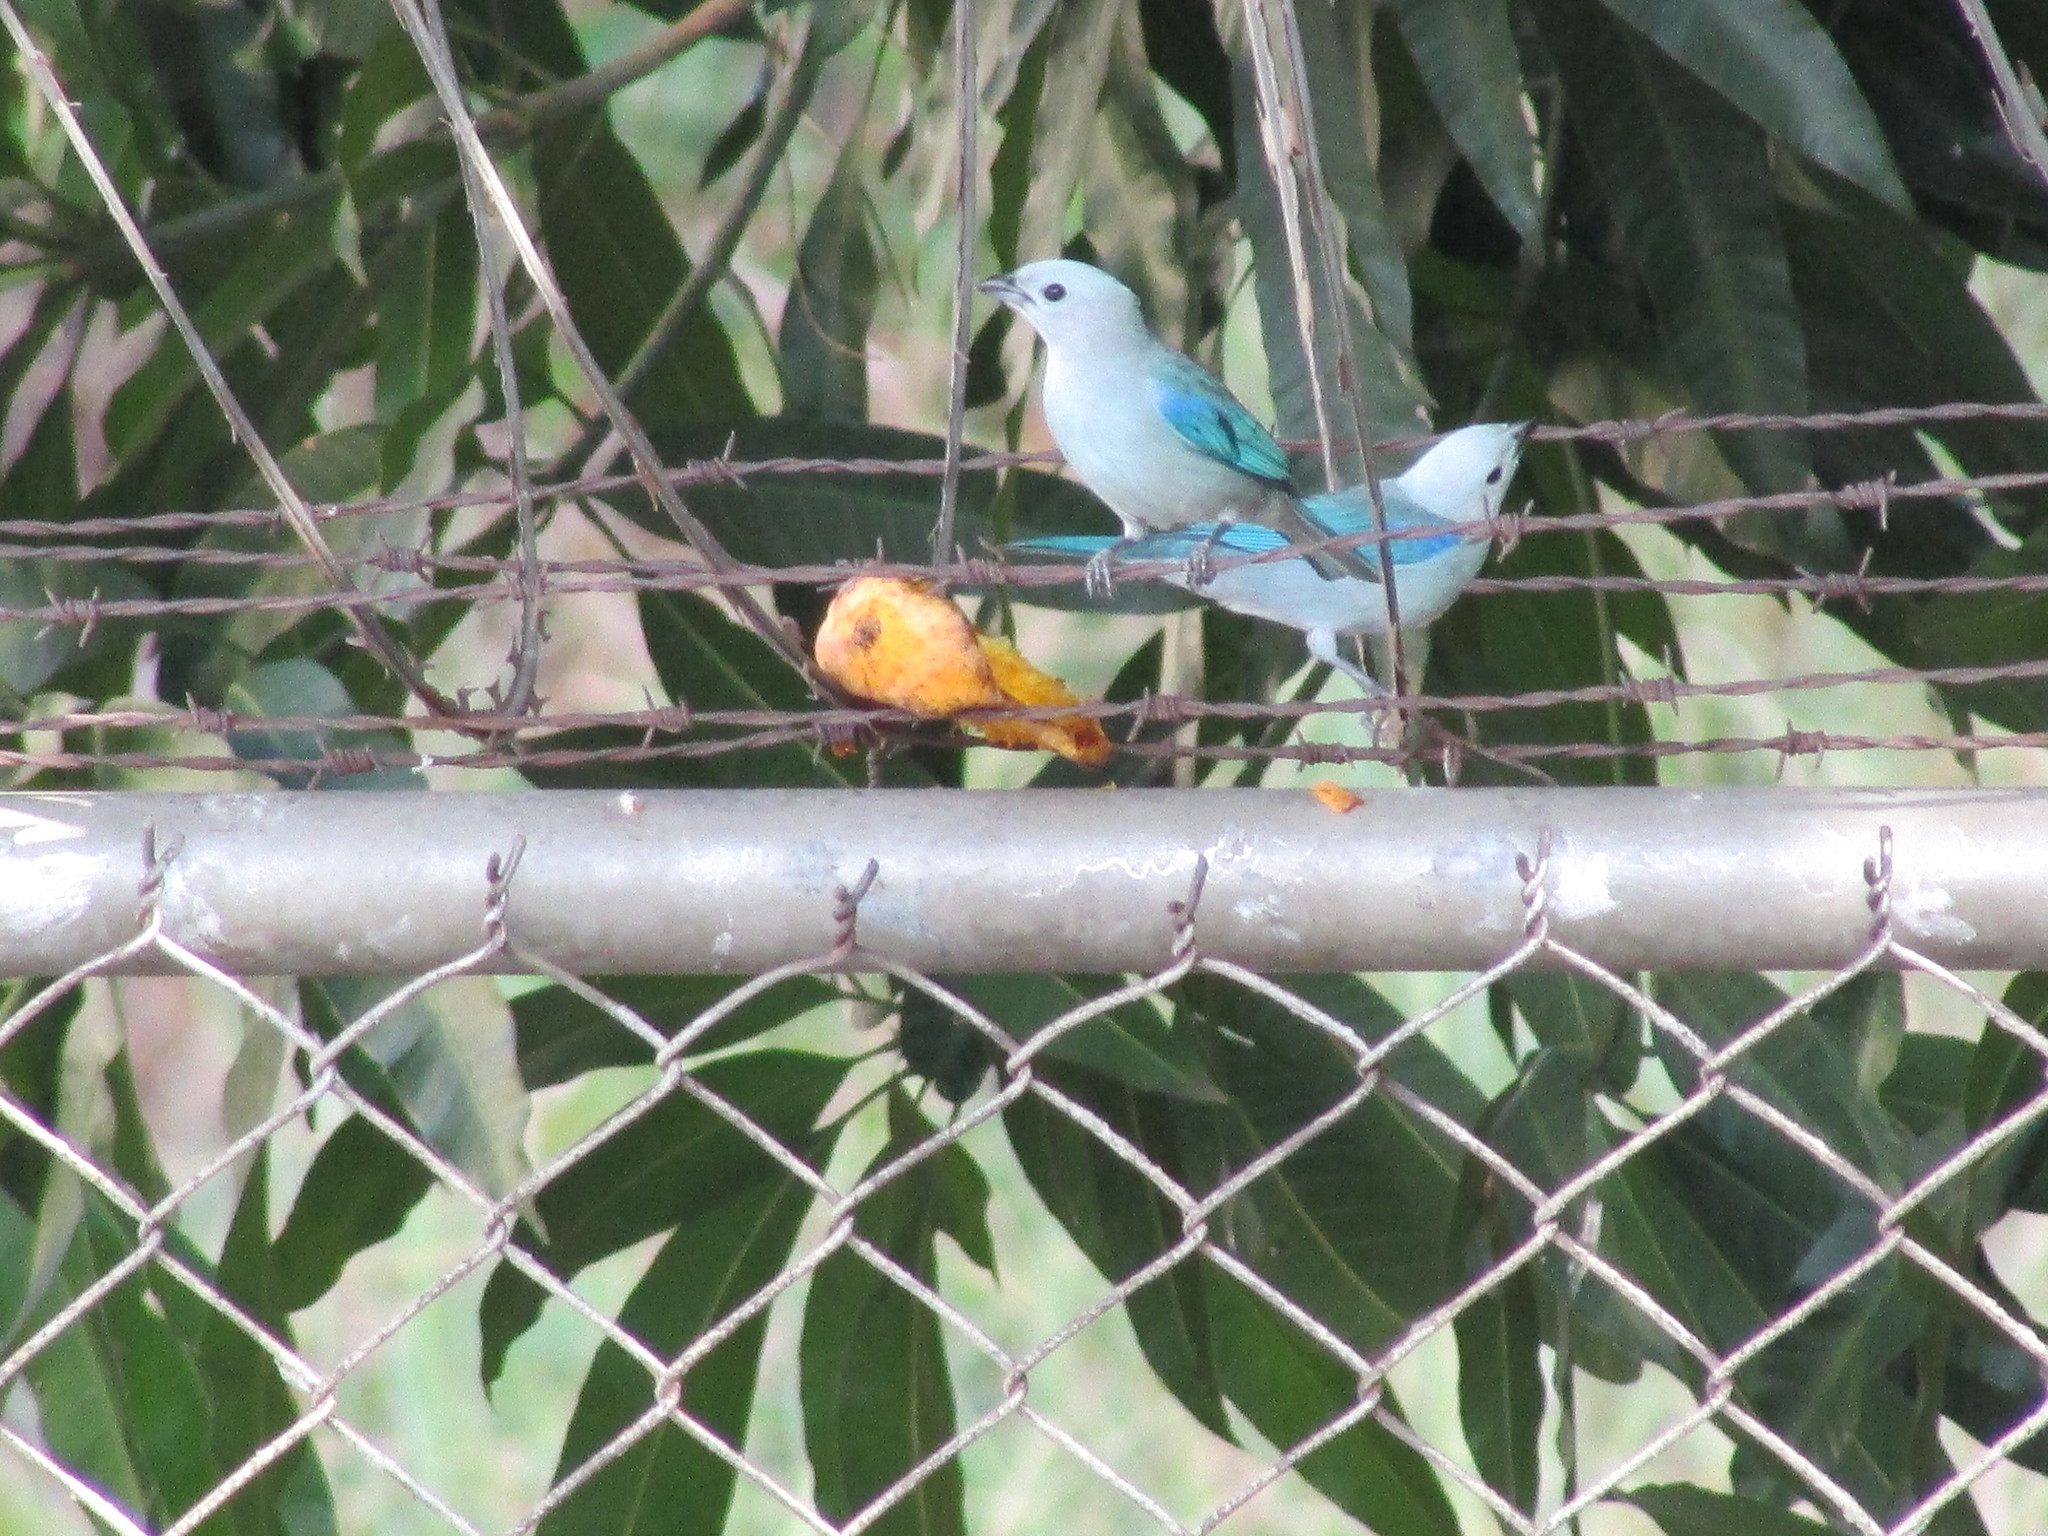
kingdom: Animalia
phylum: Chordata
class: Aves
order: Passeriformes
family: Thraupidae
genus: Thraupis
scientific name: Thraupis episcopus
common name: Blue-grey tanager
